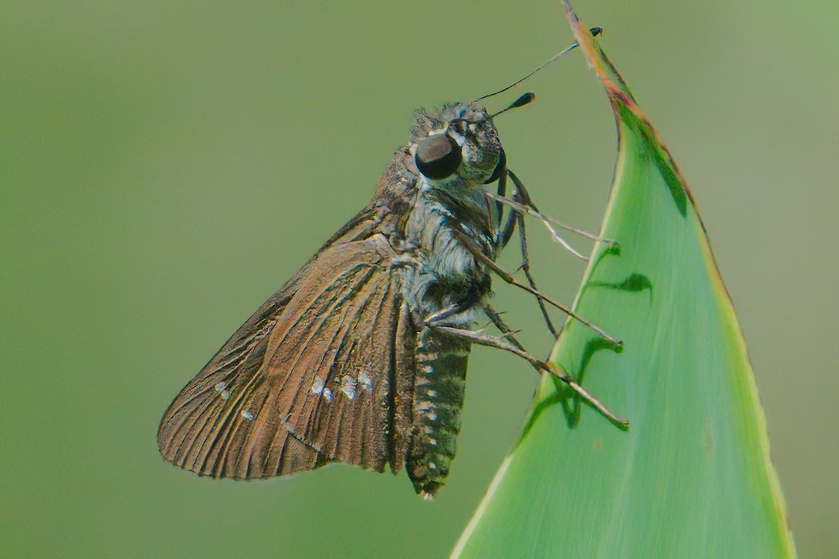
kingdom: Animalia
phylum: Arthropoda
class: Insecta
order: Lepidoptera
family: Hesperiidae
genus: Calpodes
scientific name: Calpodes ethlius
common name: Brazilian skipper
